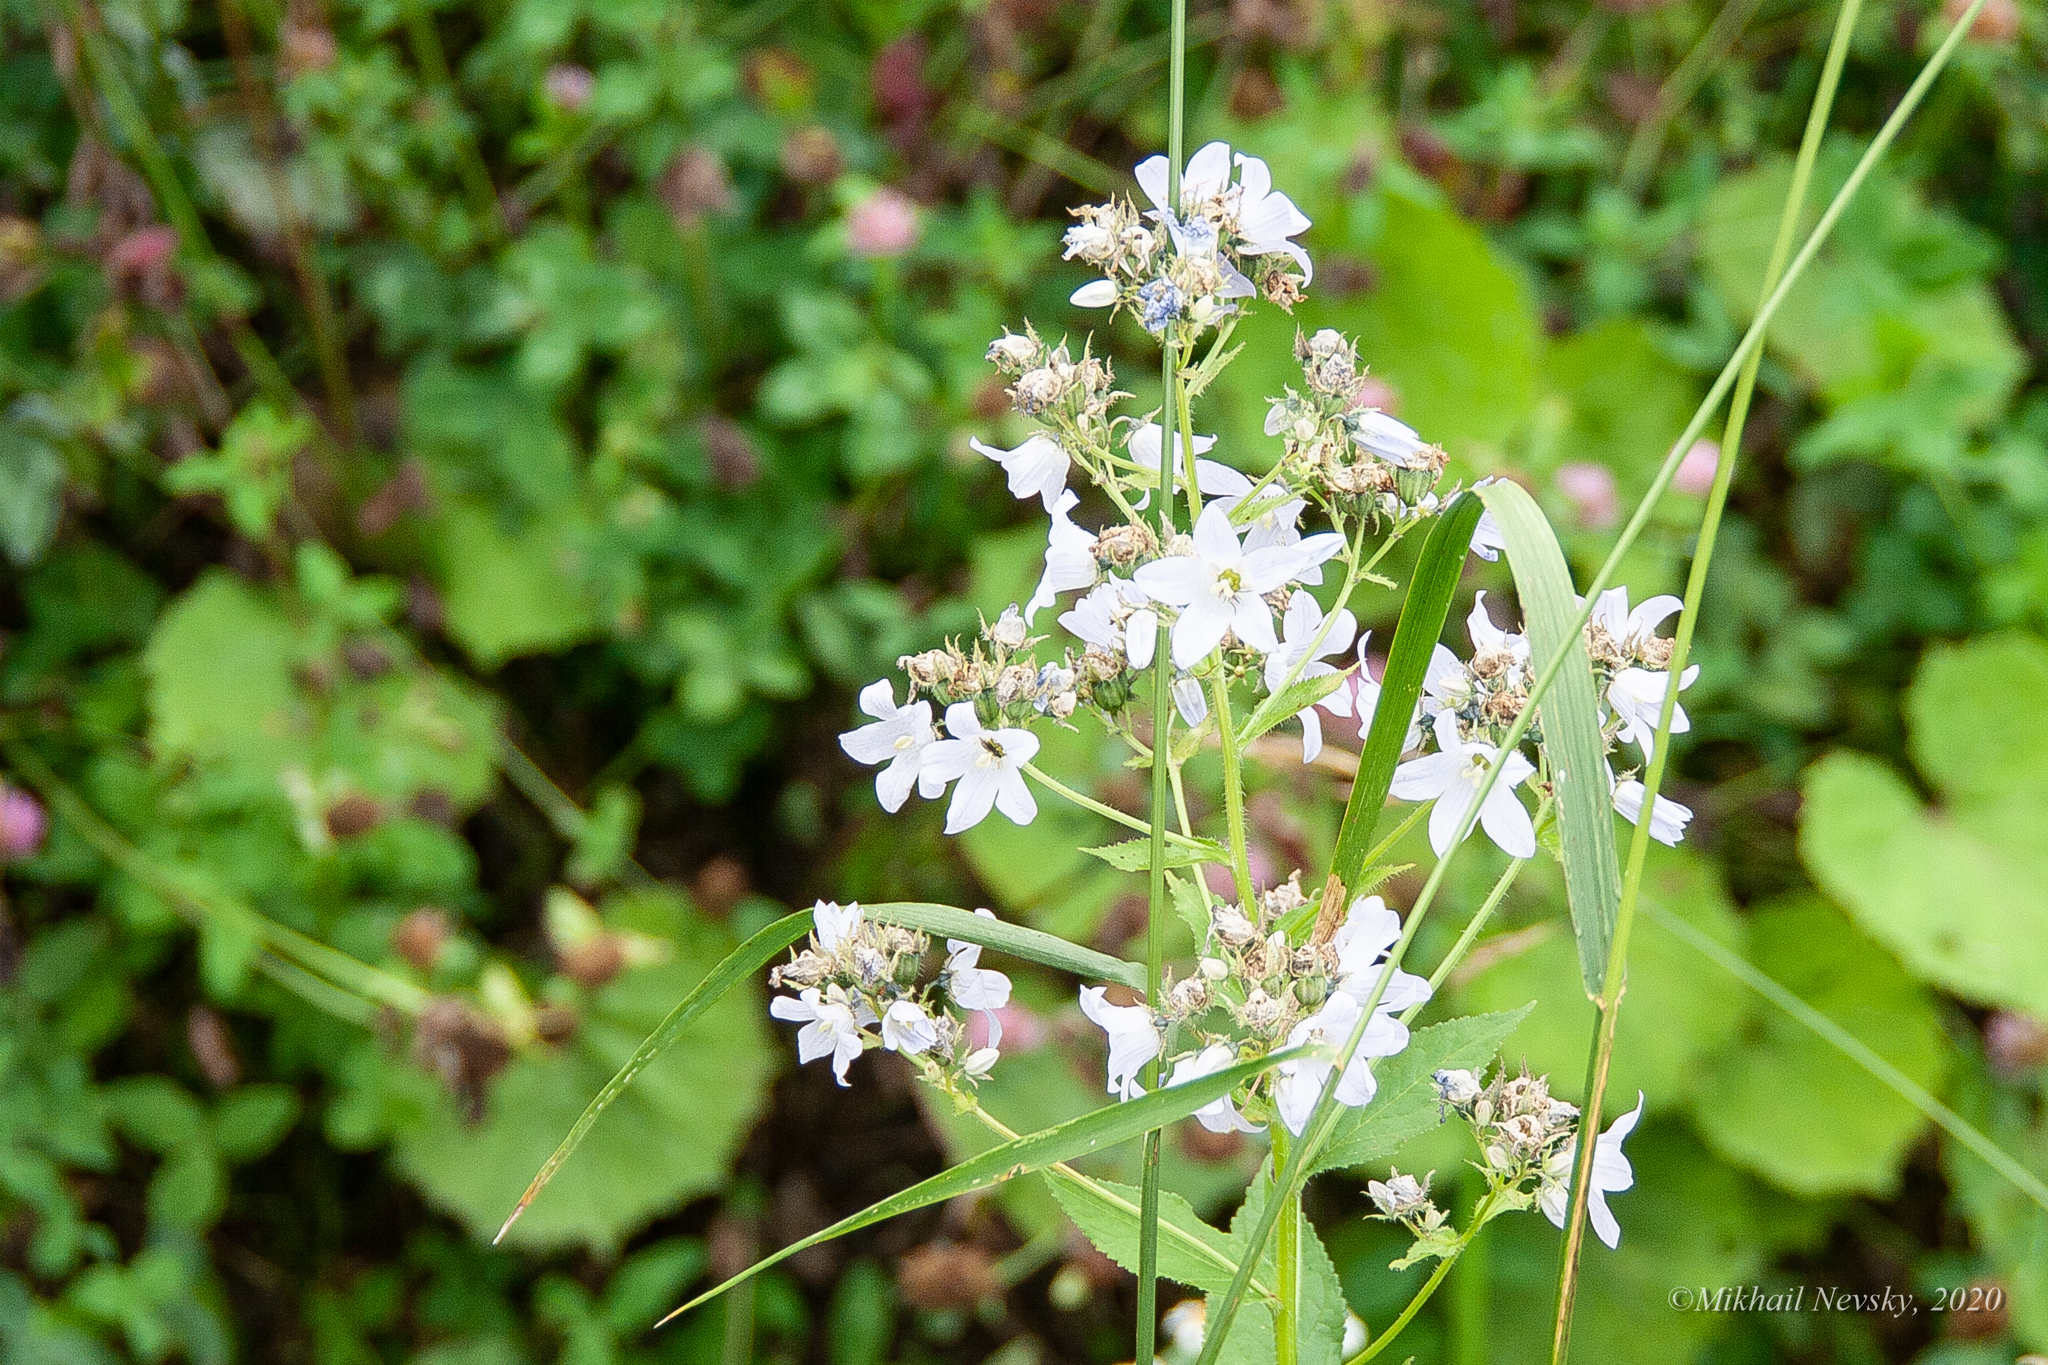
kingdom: Plantae
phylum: Tracheophyta
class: Magnoliopsida
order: Asterales
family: Campanulaceae
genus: Campanula
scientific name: Campanula lactiflora
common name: Milky bellflower
